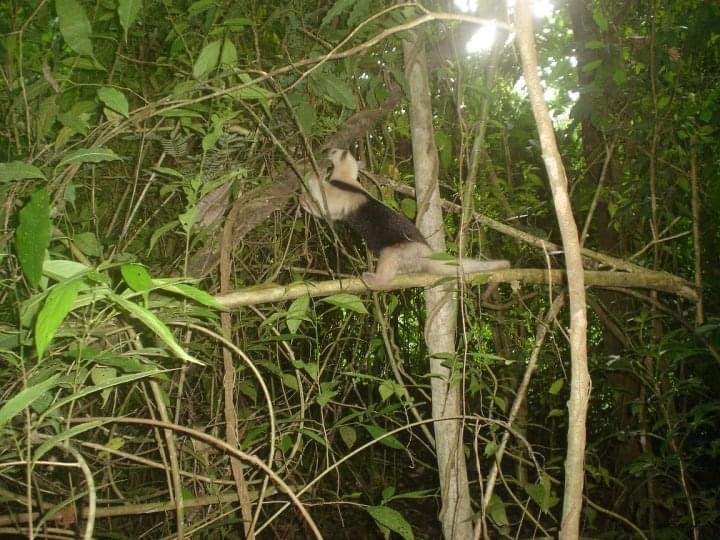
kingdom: Animalia
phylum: Chordata
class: Mammalia
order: Pilosa
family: Myrmecophagidae
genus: Tamandua
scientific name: Tamandua mexicana
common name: Northern tamandua
